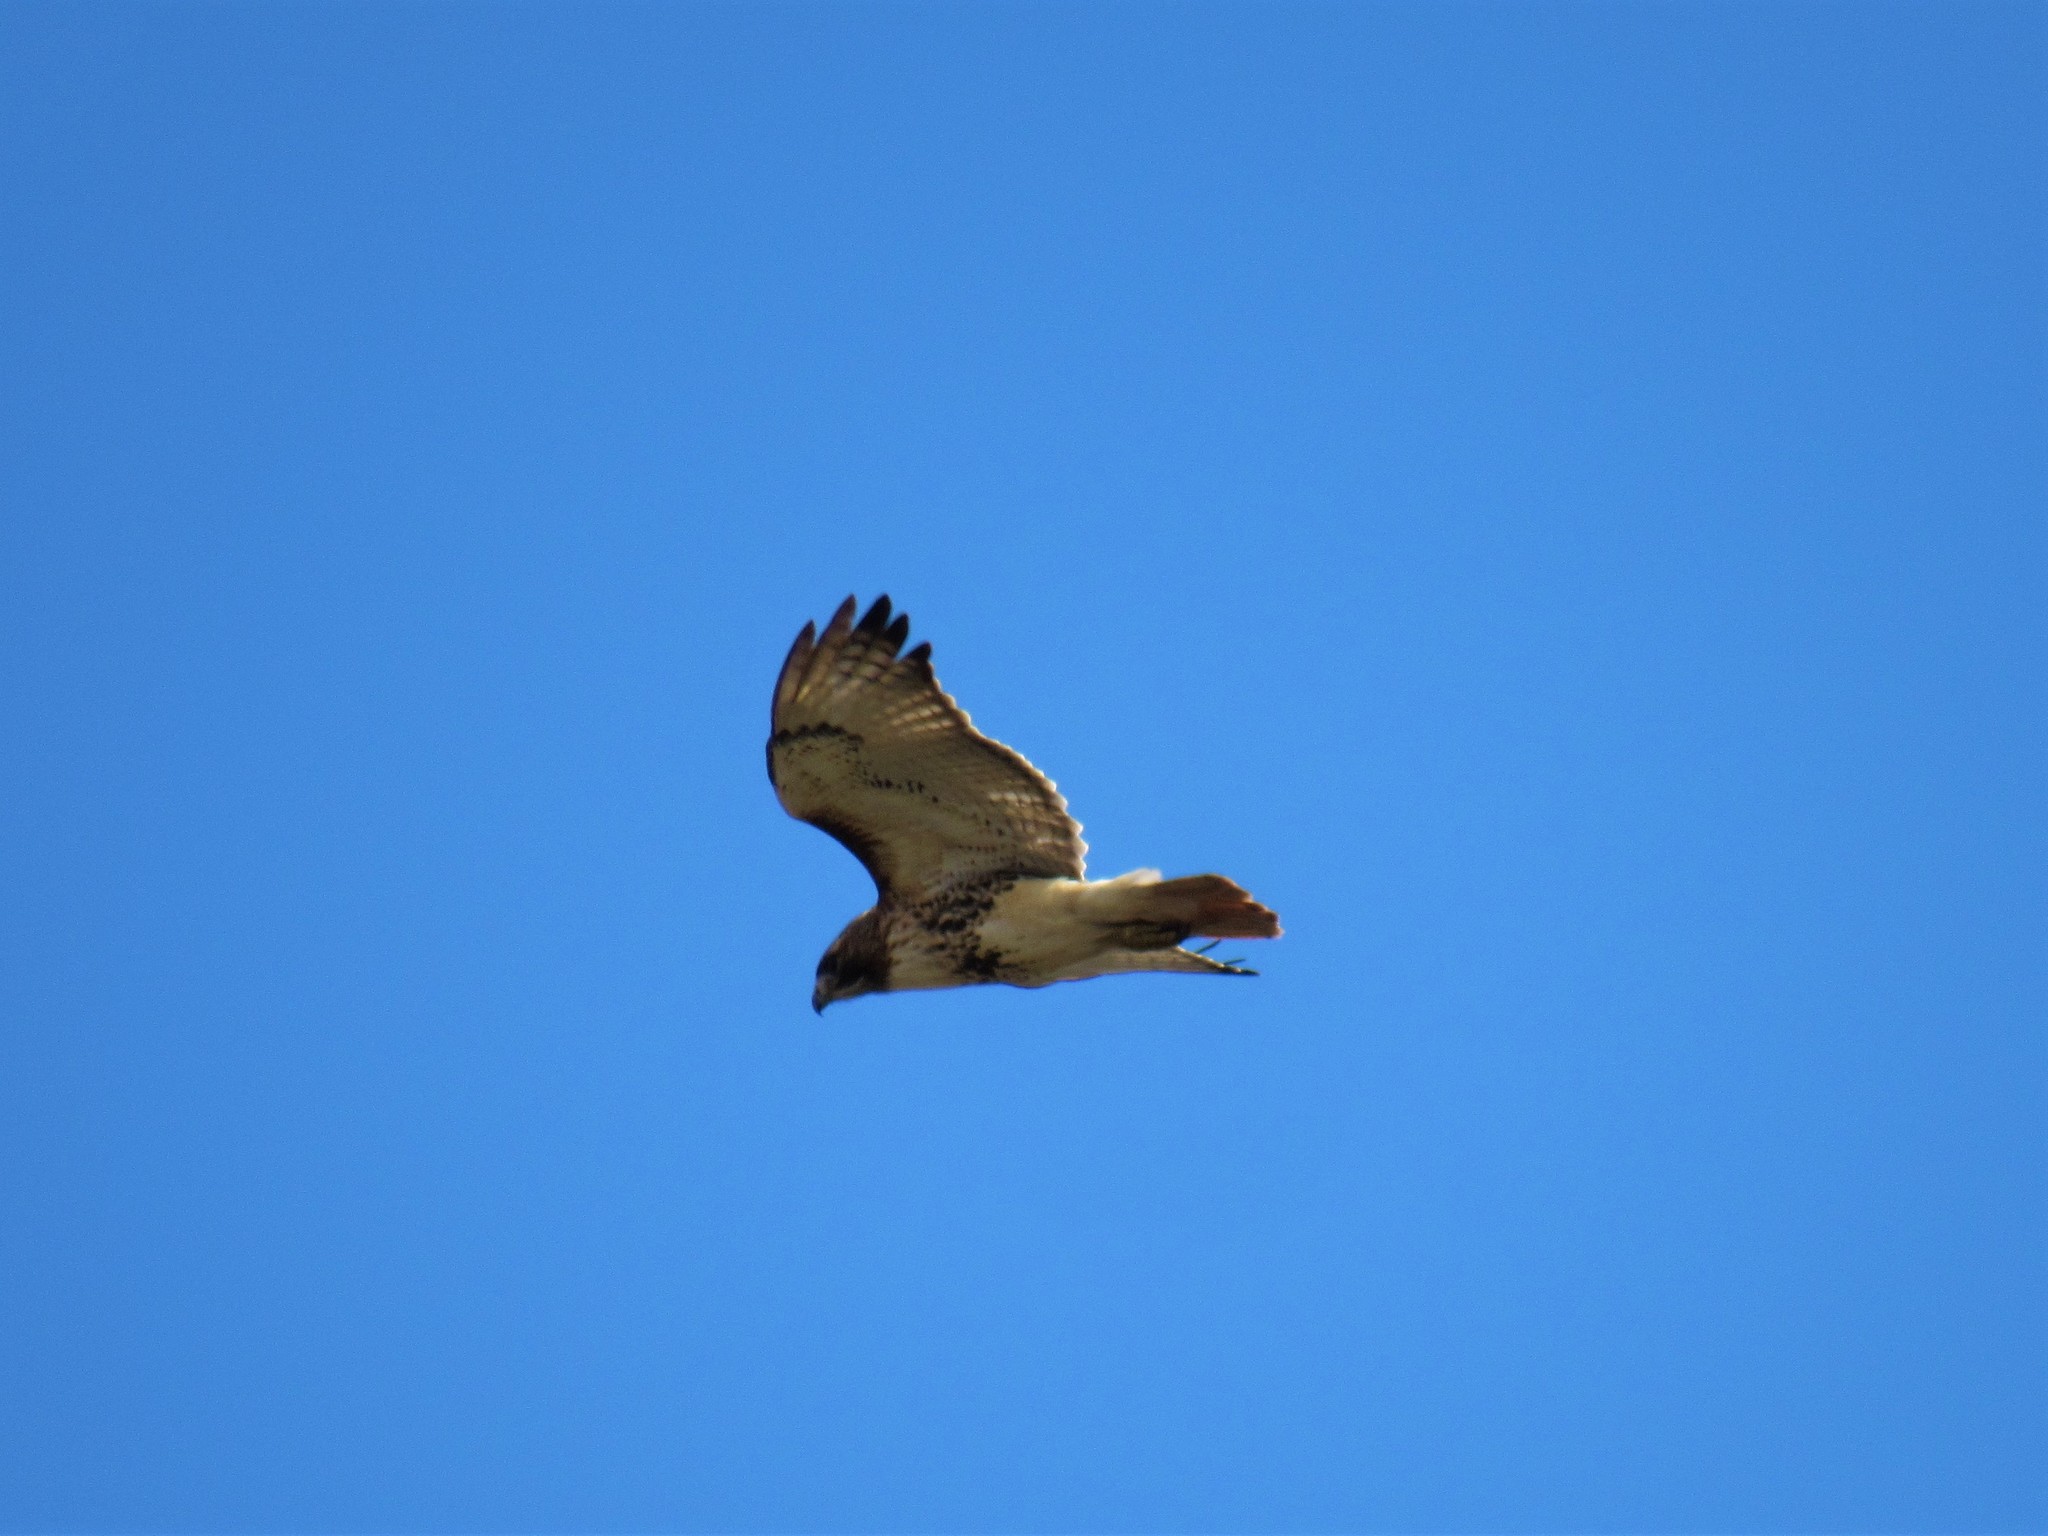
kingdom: Animalia
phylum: Chordata
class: Aves
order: Accipitriformes
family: Accipitridae
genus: Buteo
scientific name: Buteo jamaicensis
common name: Red-tailed hawk
